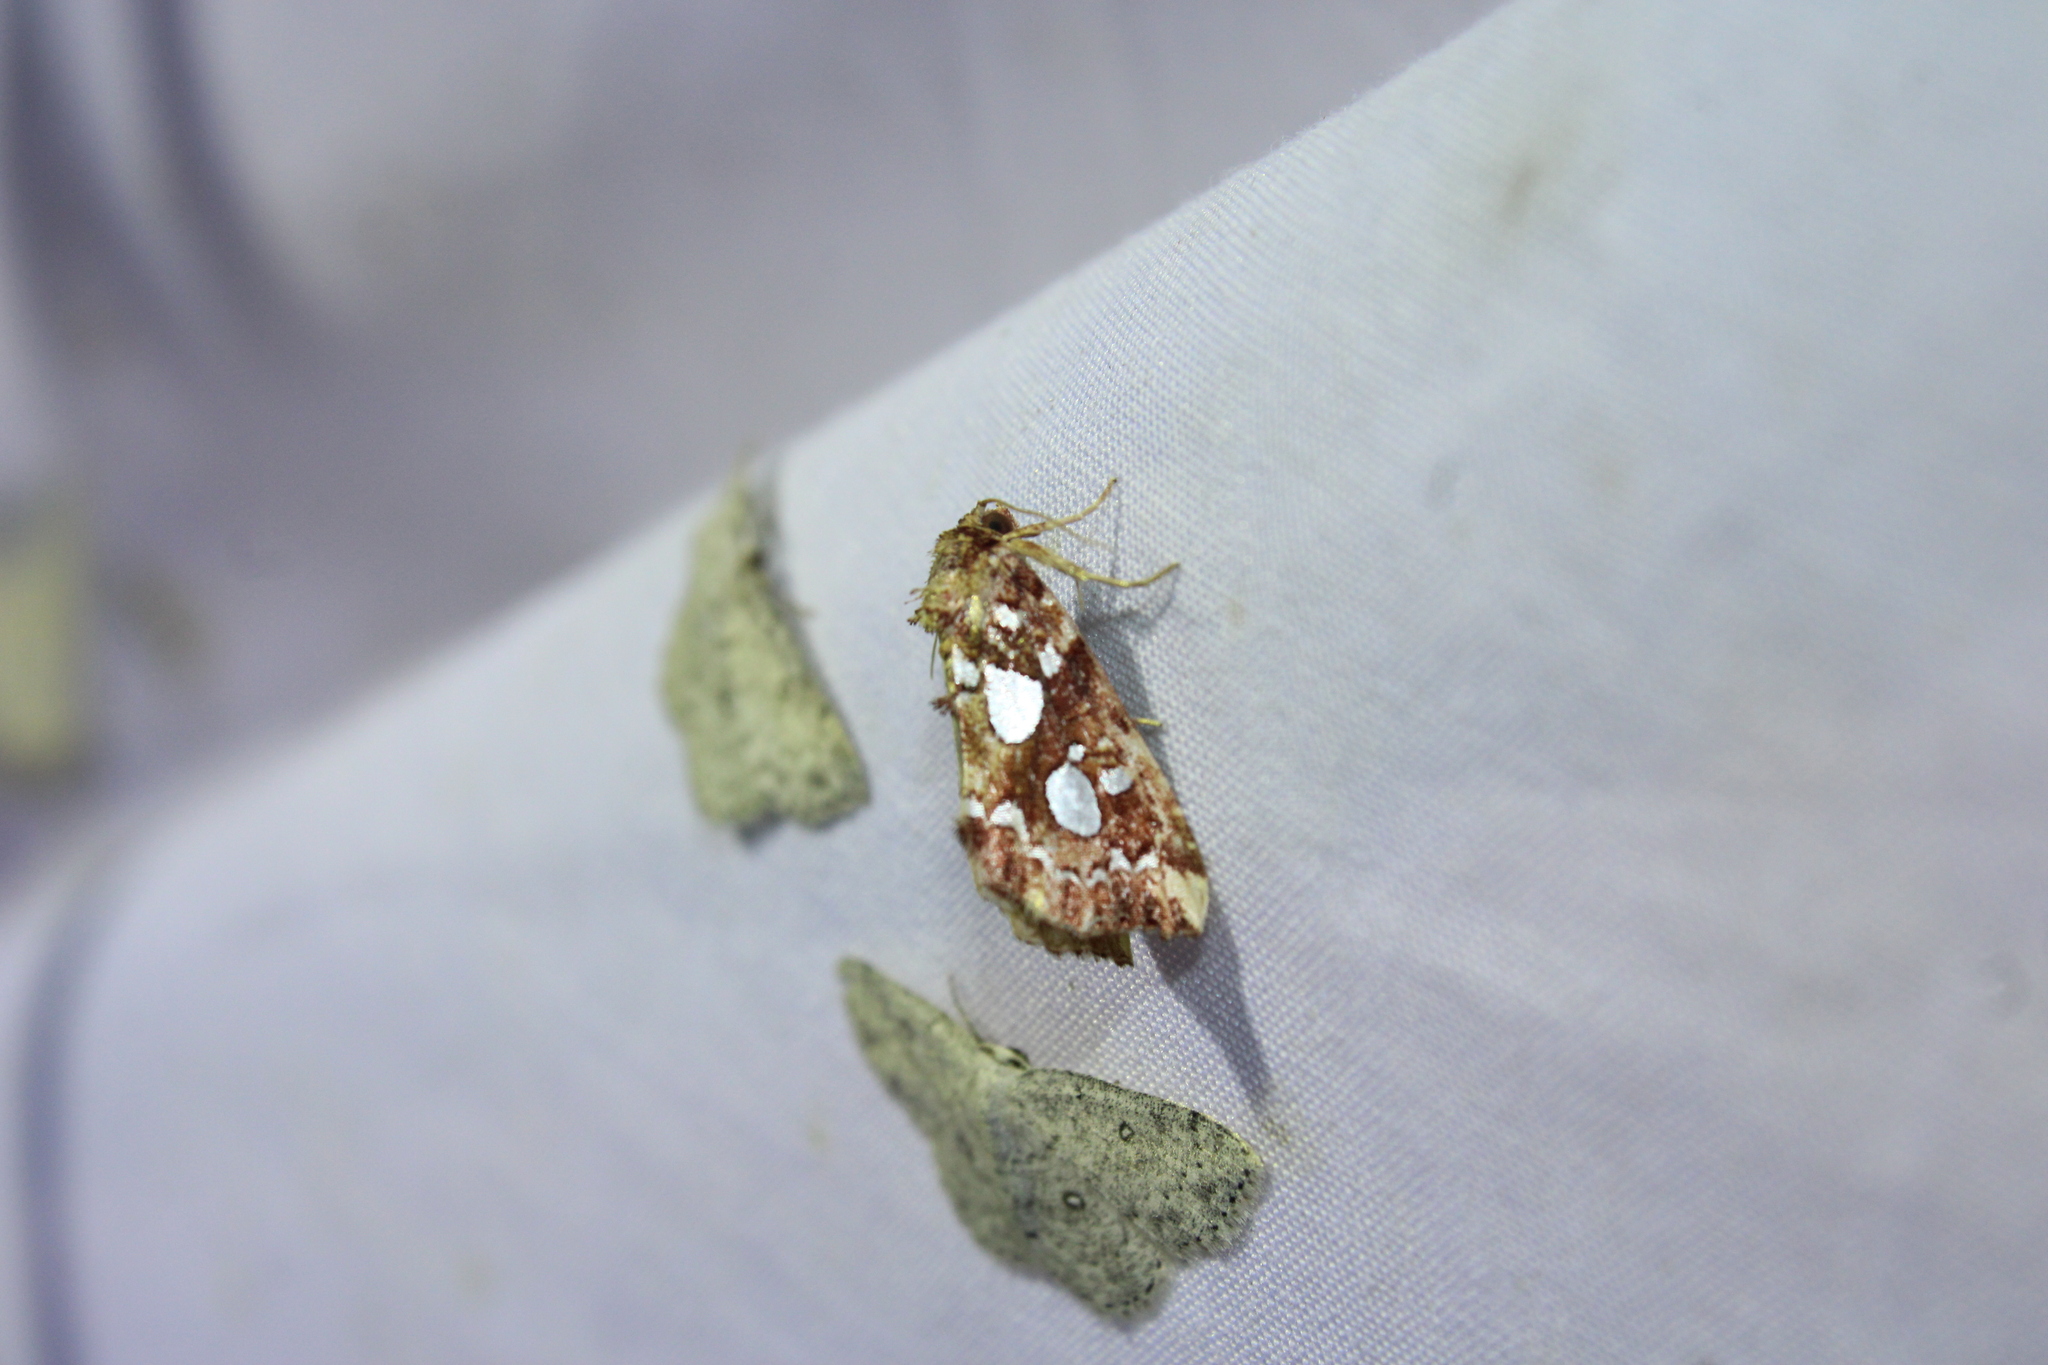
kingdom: Animalia
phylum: Arthropoda
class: Insecta
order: Lepidoptera
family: Noctuidae
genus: Callopistria
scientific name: Callopistria cordata
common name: Silver-spotted fern moth
